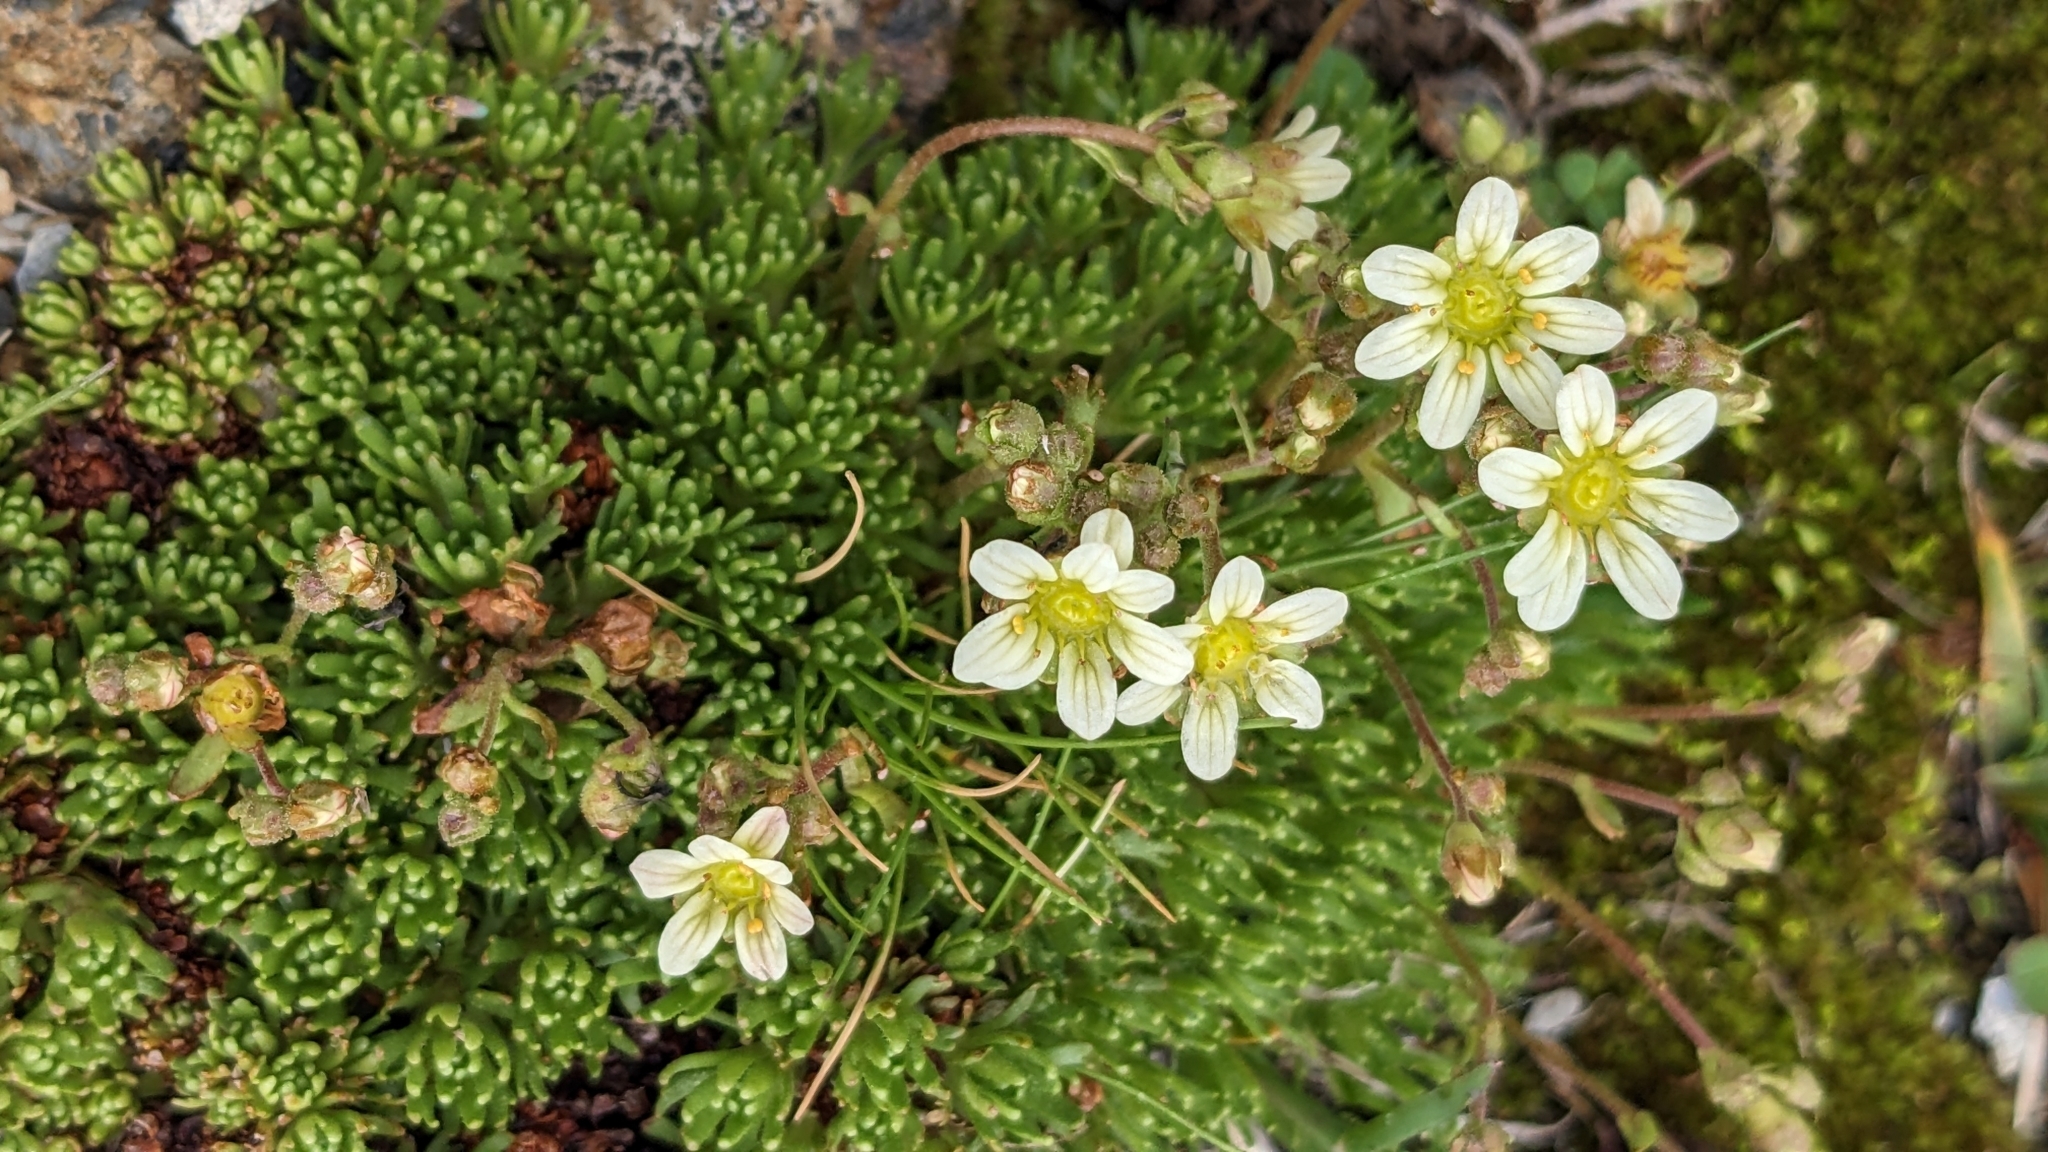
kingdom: Plantae
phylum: Tracheophyta
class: Magnoliopsida
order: Saxifragales
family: Saxifragaceae
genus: Saxifraga
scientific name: Saxifraga moschata
